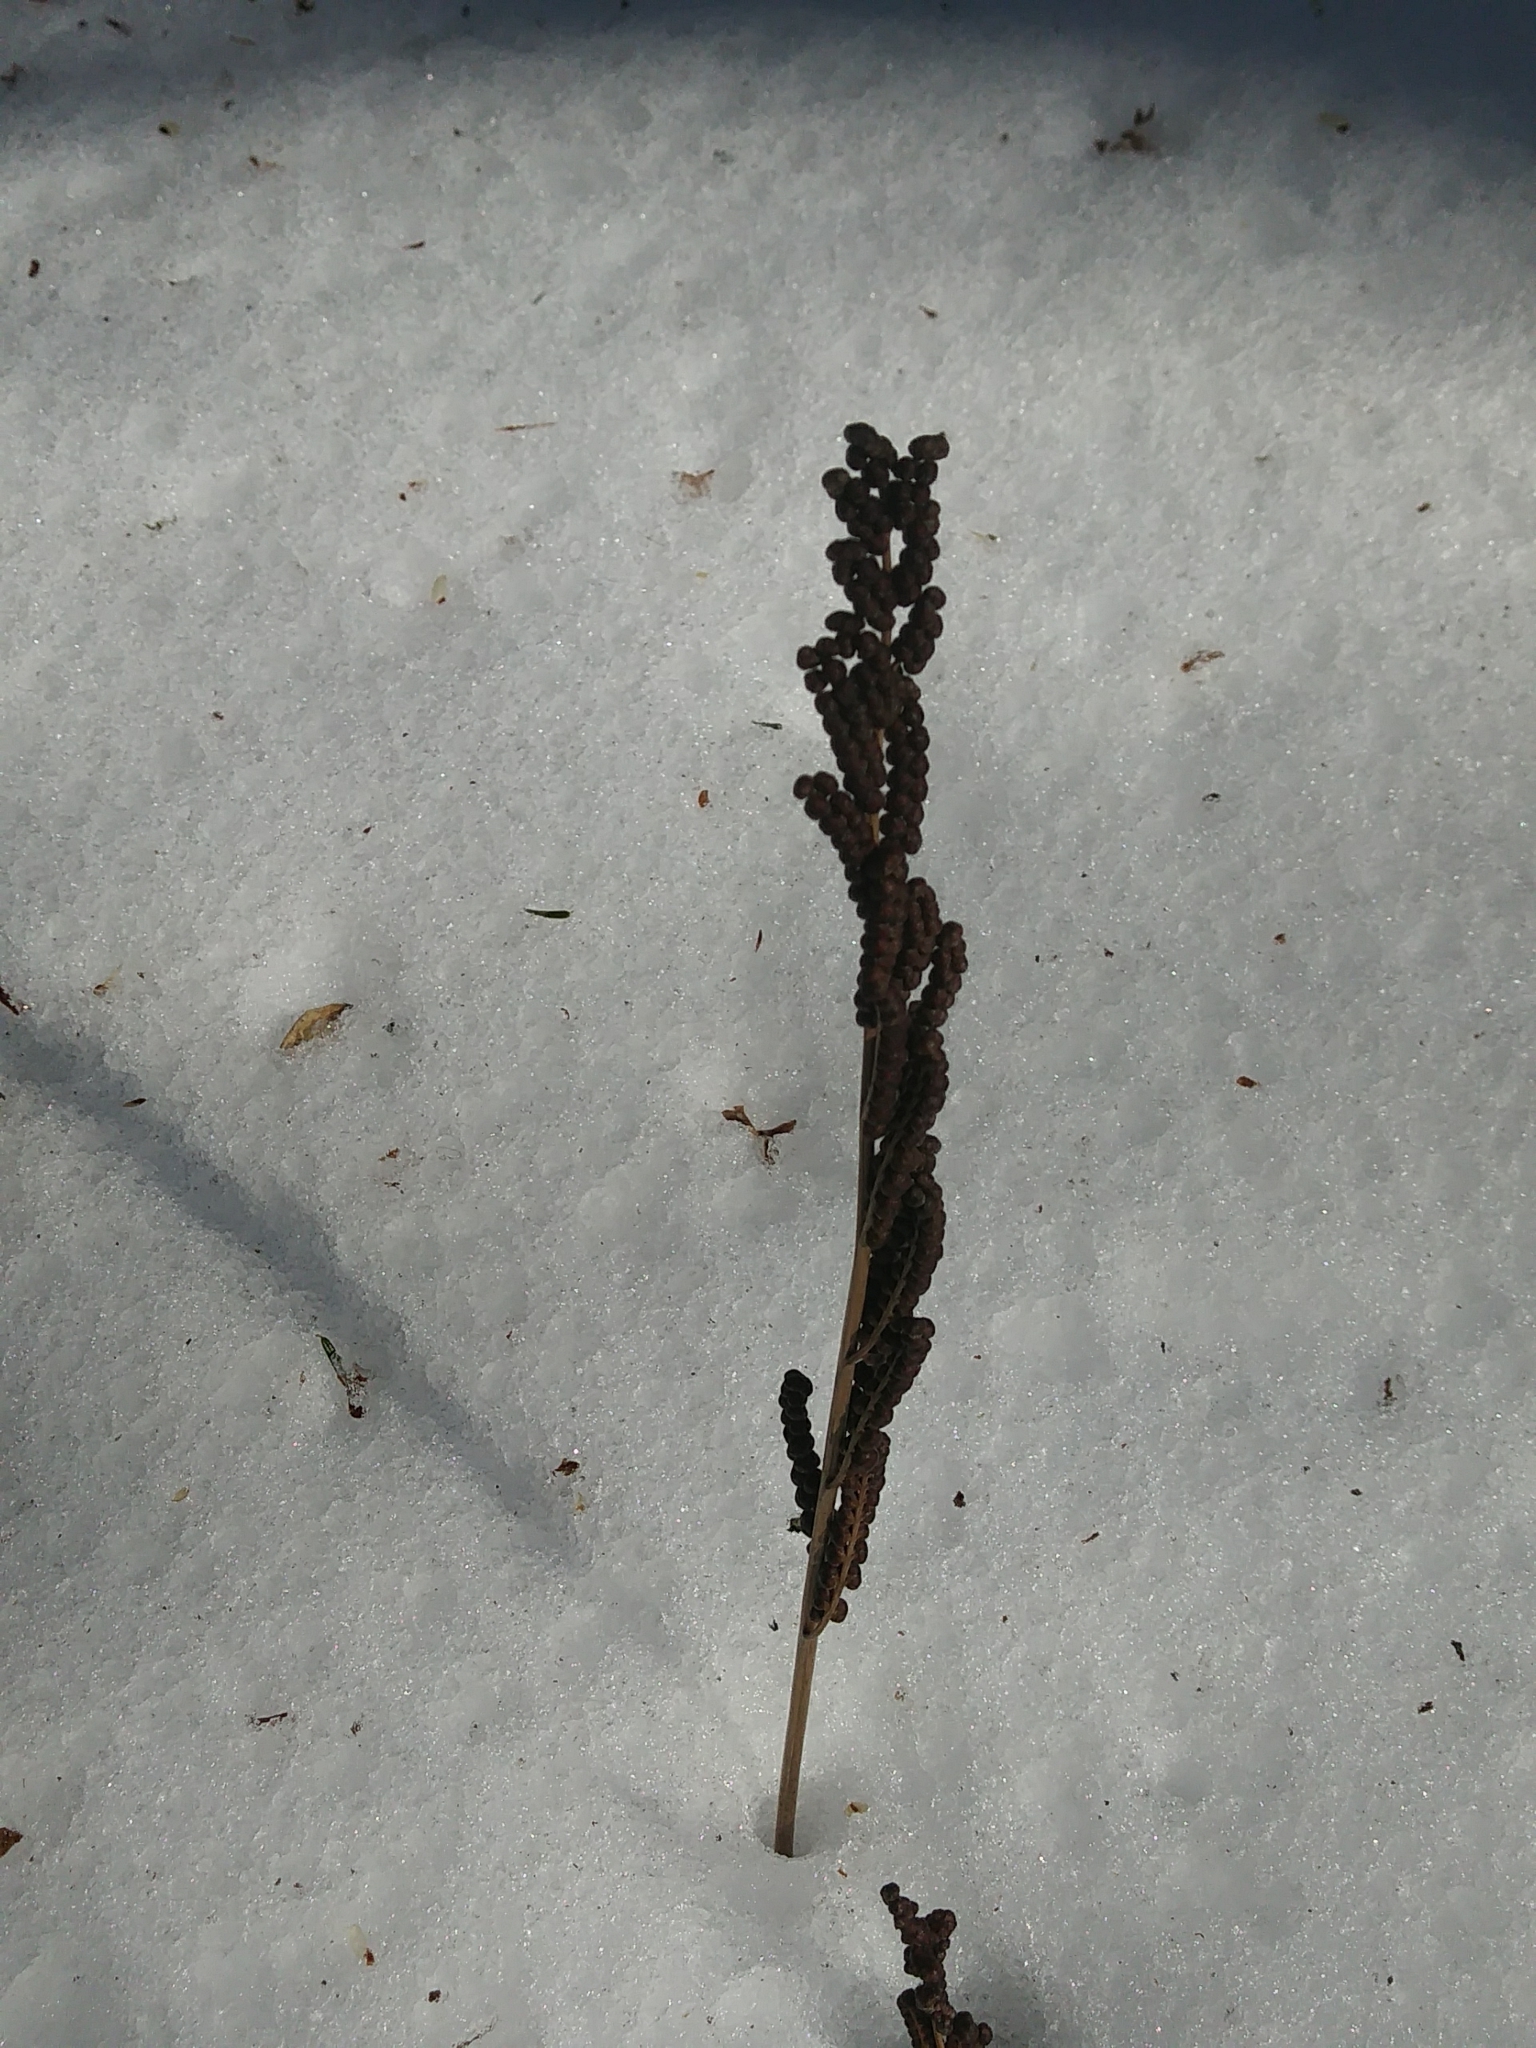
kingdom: Plantae
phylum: Tracheophyta
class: Polypodiopsida
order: Polypodiales
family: Onocleaceae
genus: Onoclea
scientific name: Onoclea sensibilis
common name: Sensitive fern
